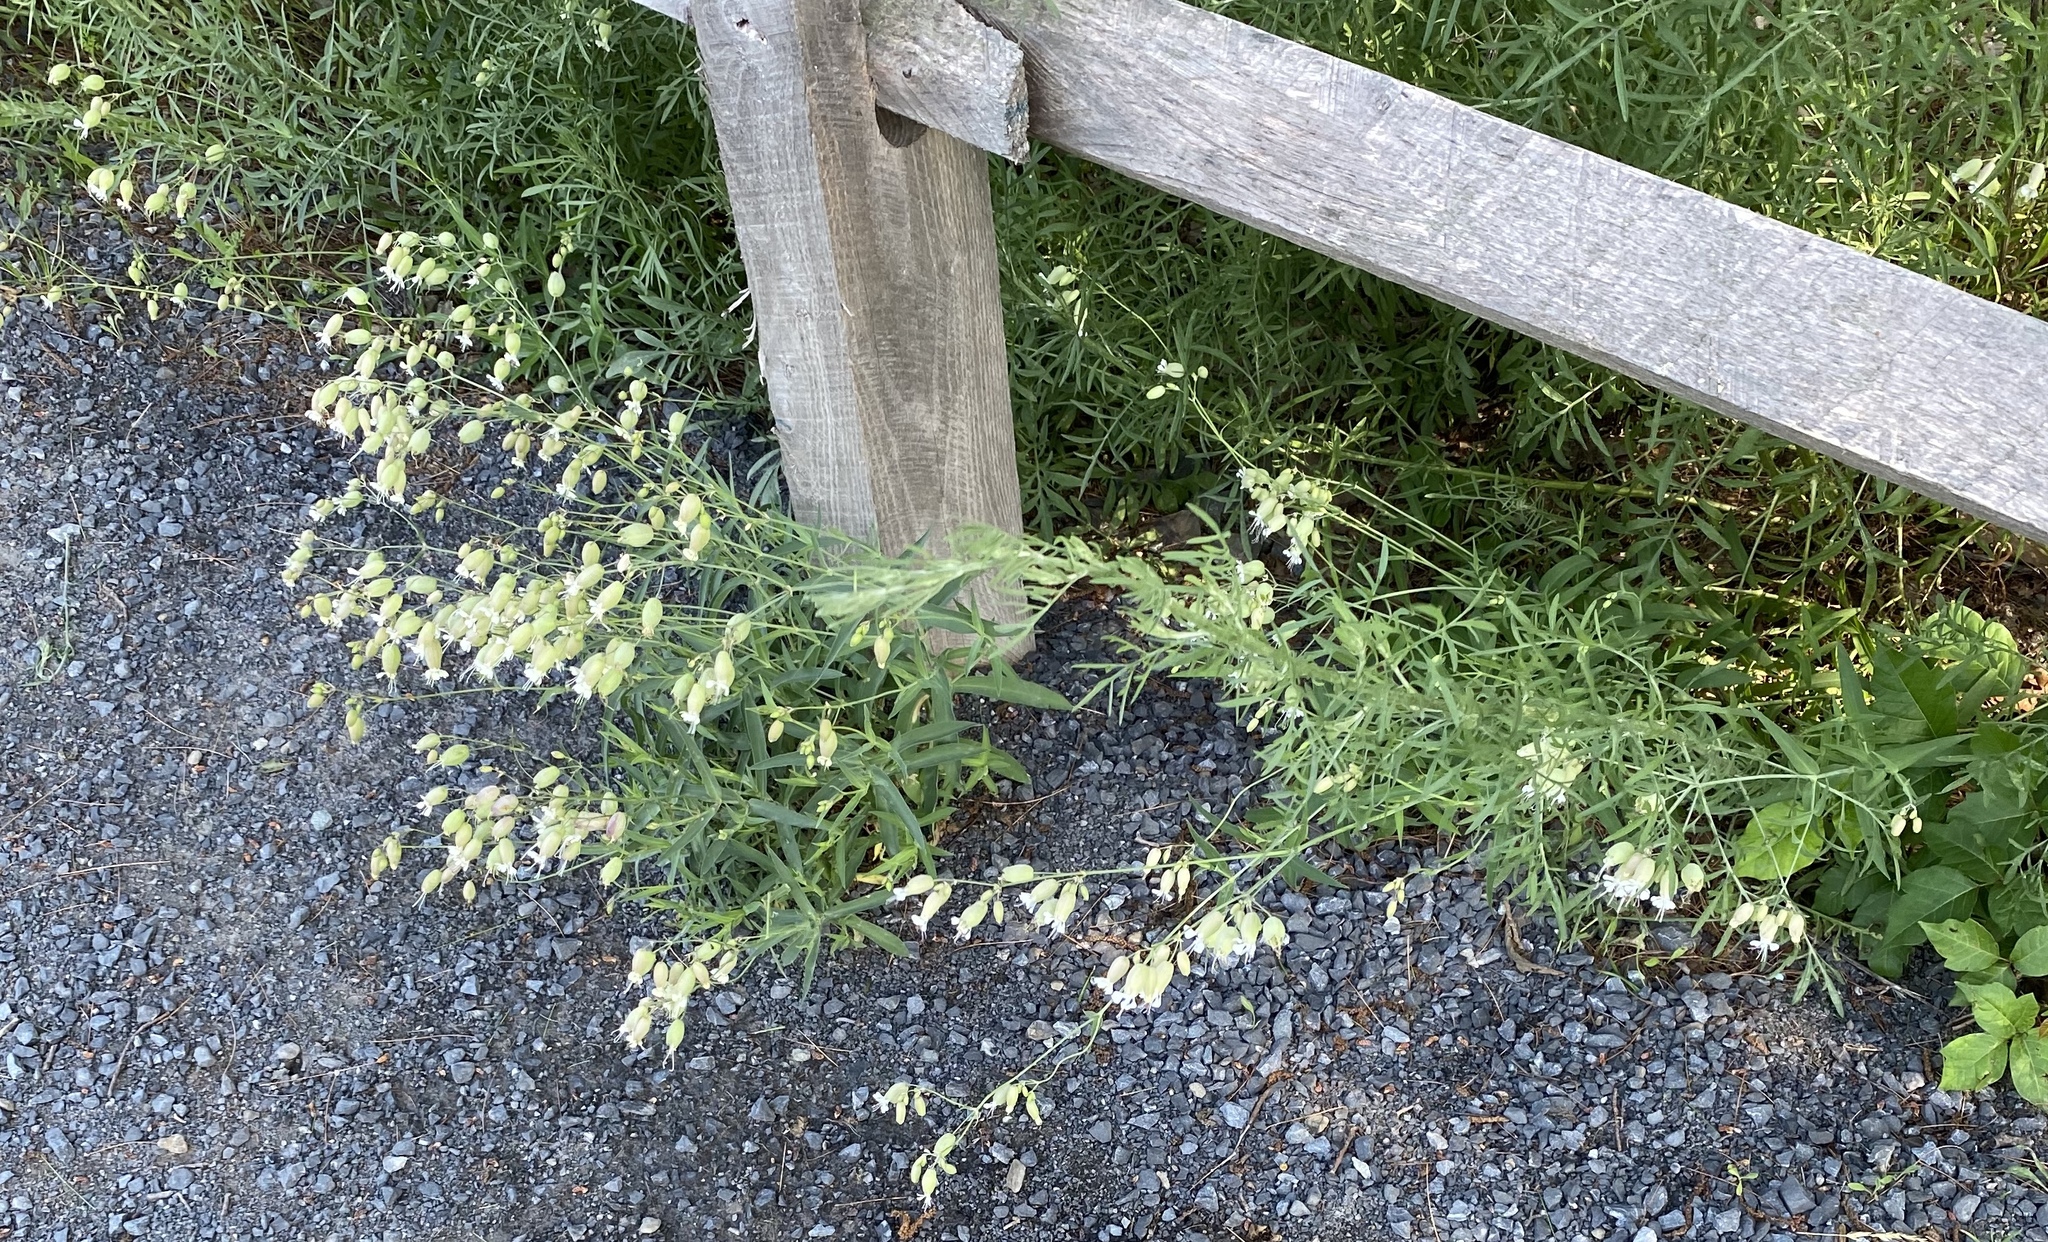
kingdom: Plantae
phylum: Tracheophyta
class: Magnoliopsida
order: Caryophyllales
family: Caryophyllaceae
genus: Silene
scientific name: Silene vulgaris
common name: Bladder campion
